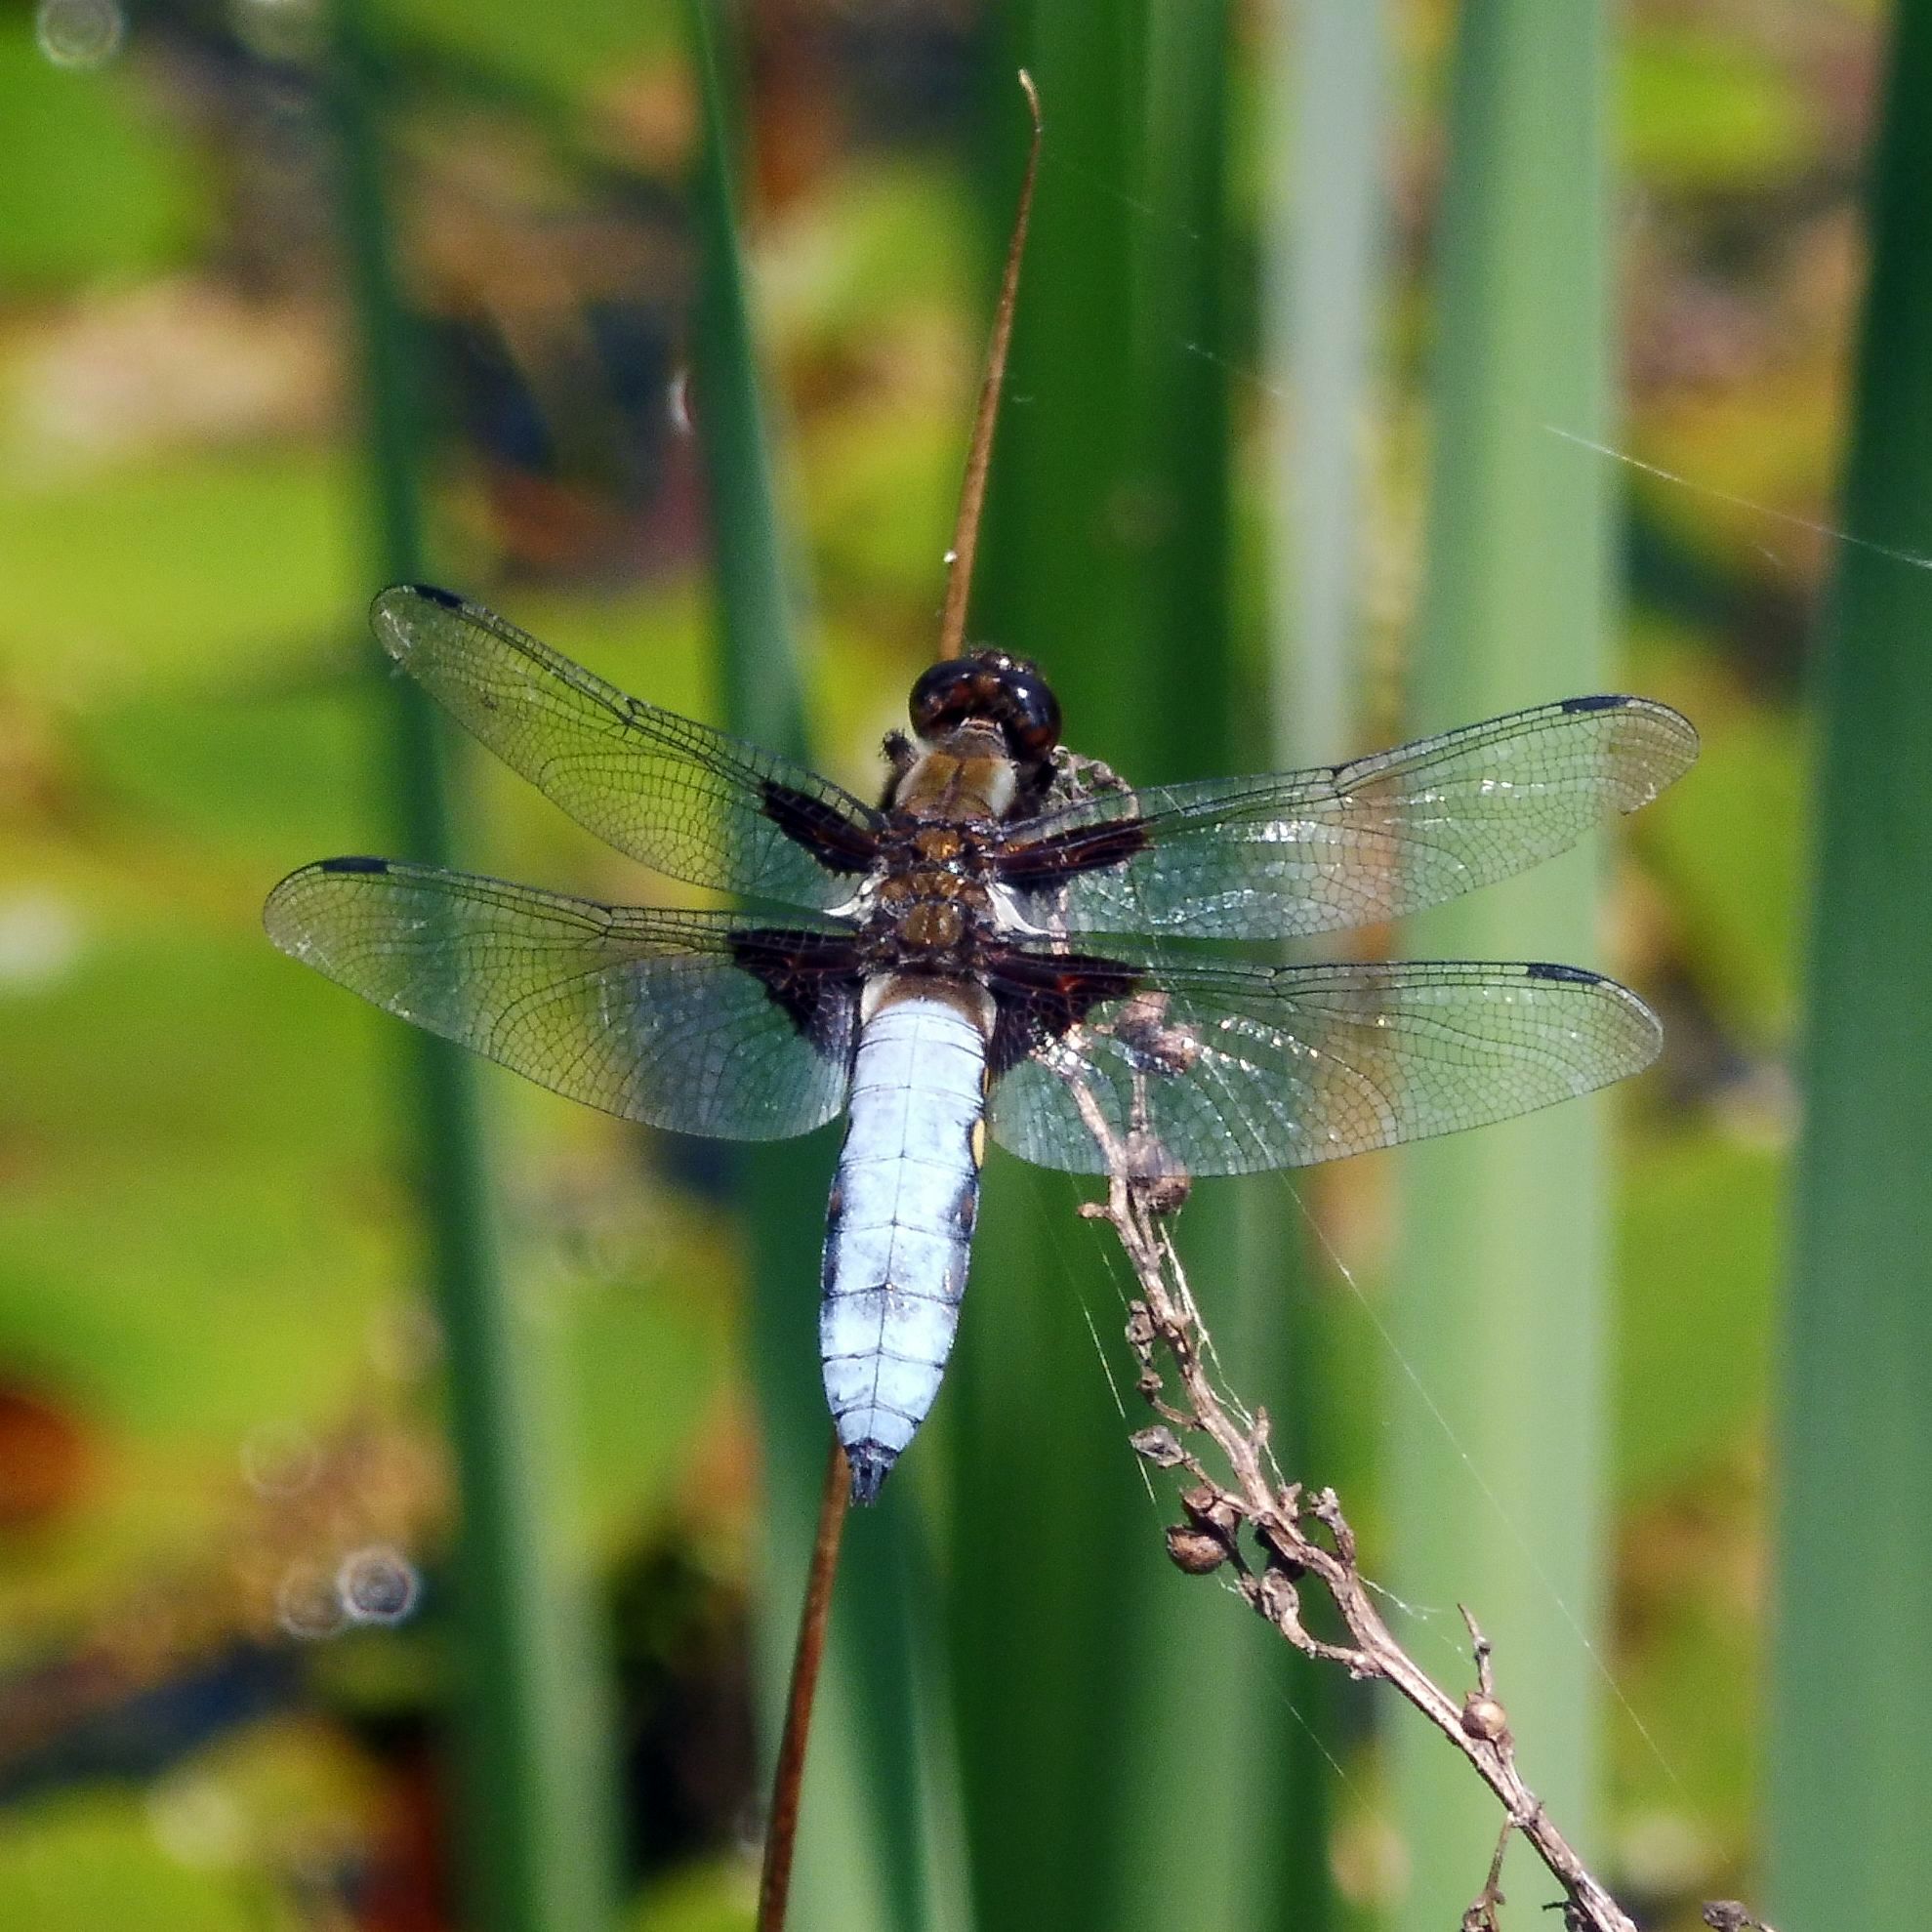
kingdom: Animalia
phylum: Arthropoda
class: Insecta
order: Odonata
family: Libellulidae
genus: Libellula
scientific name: Libellula depressa
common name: Broad-bodied chaser
